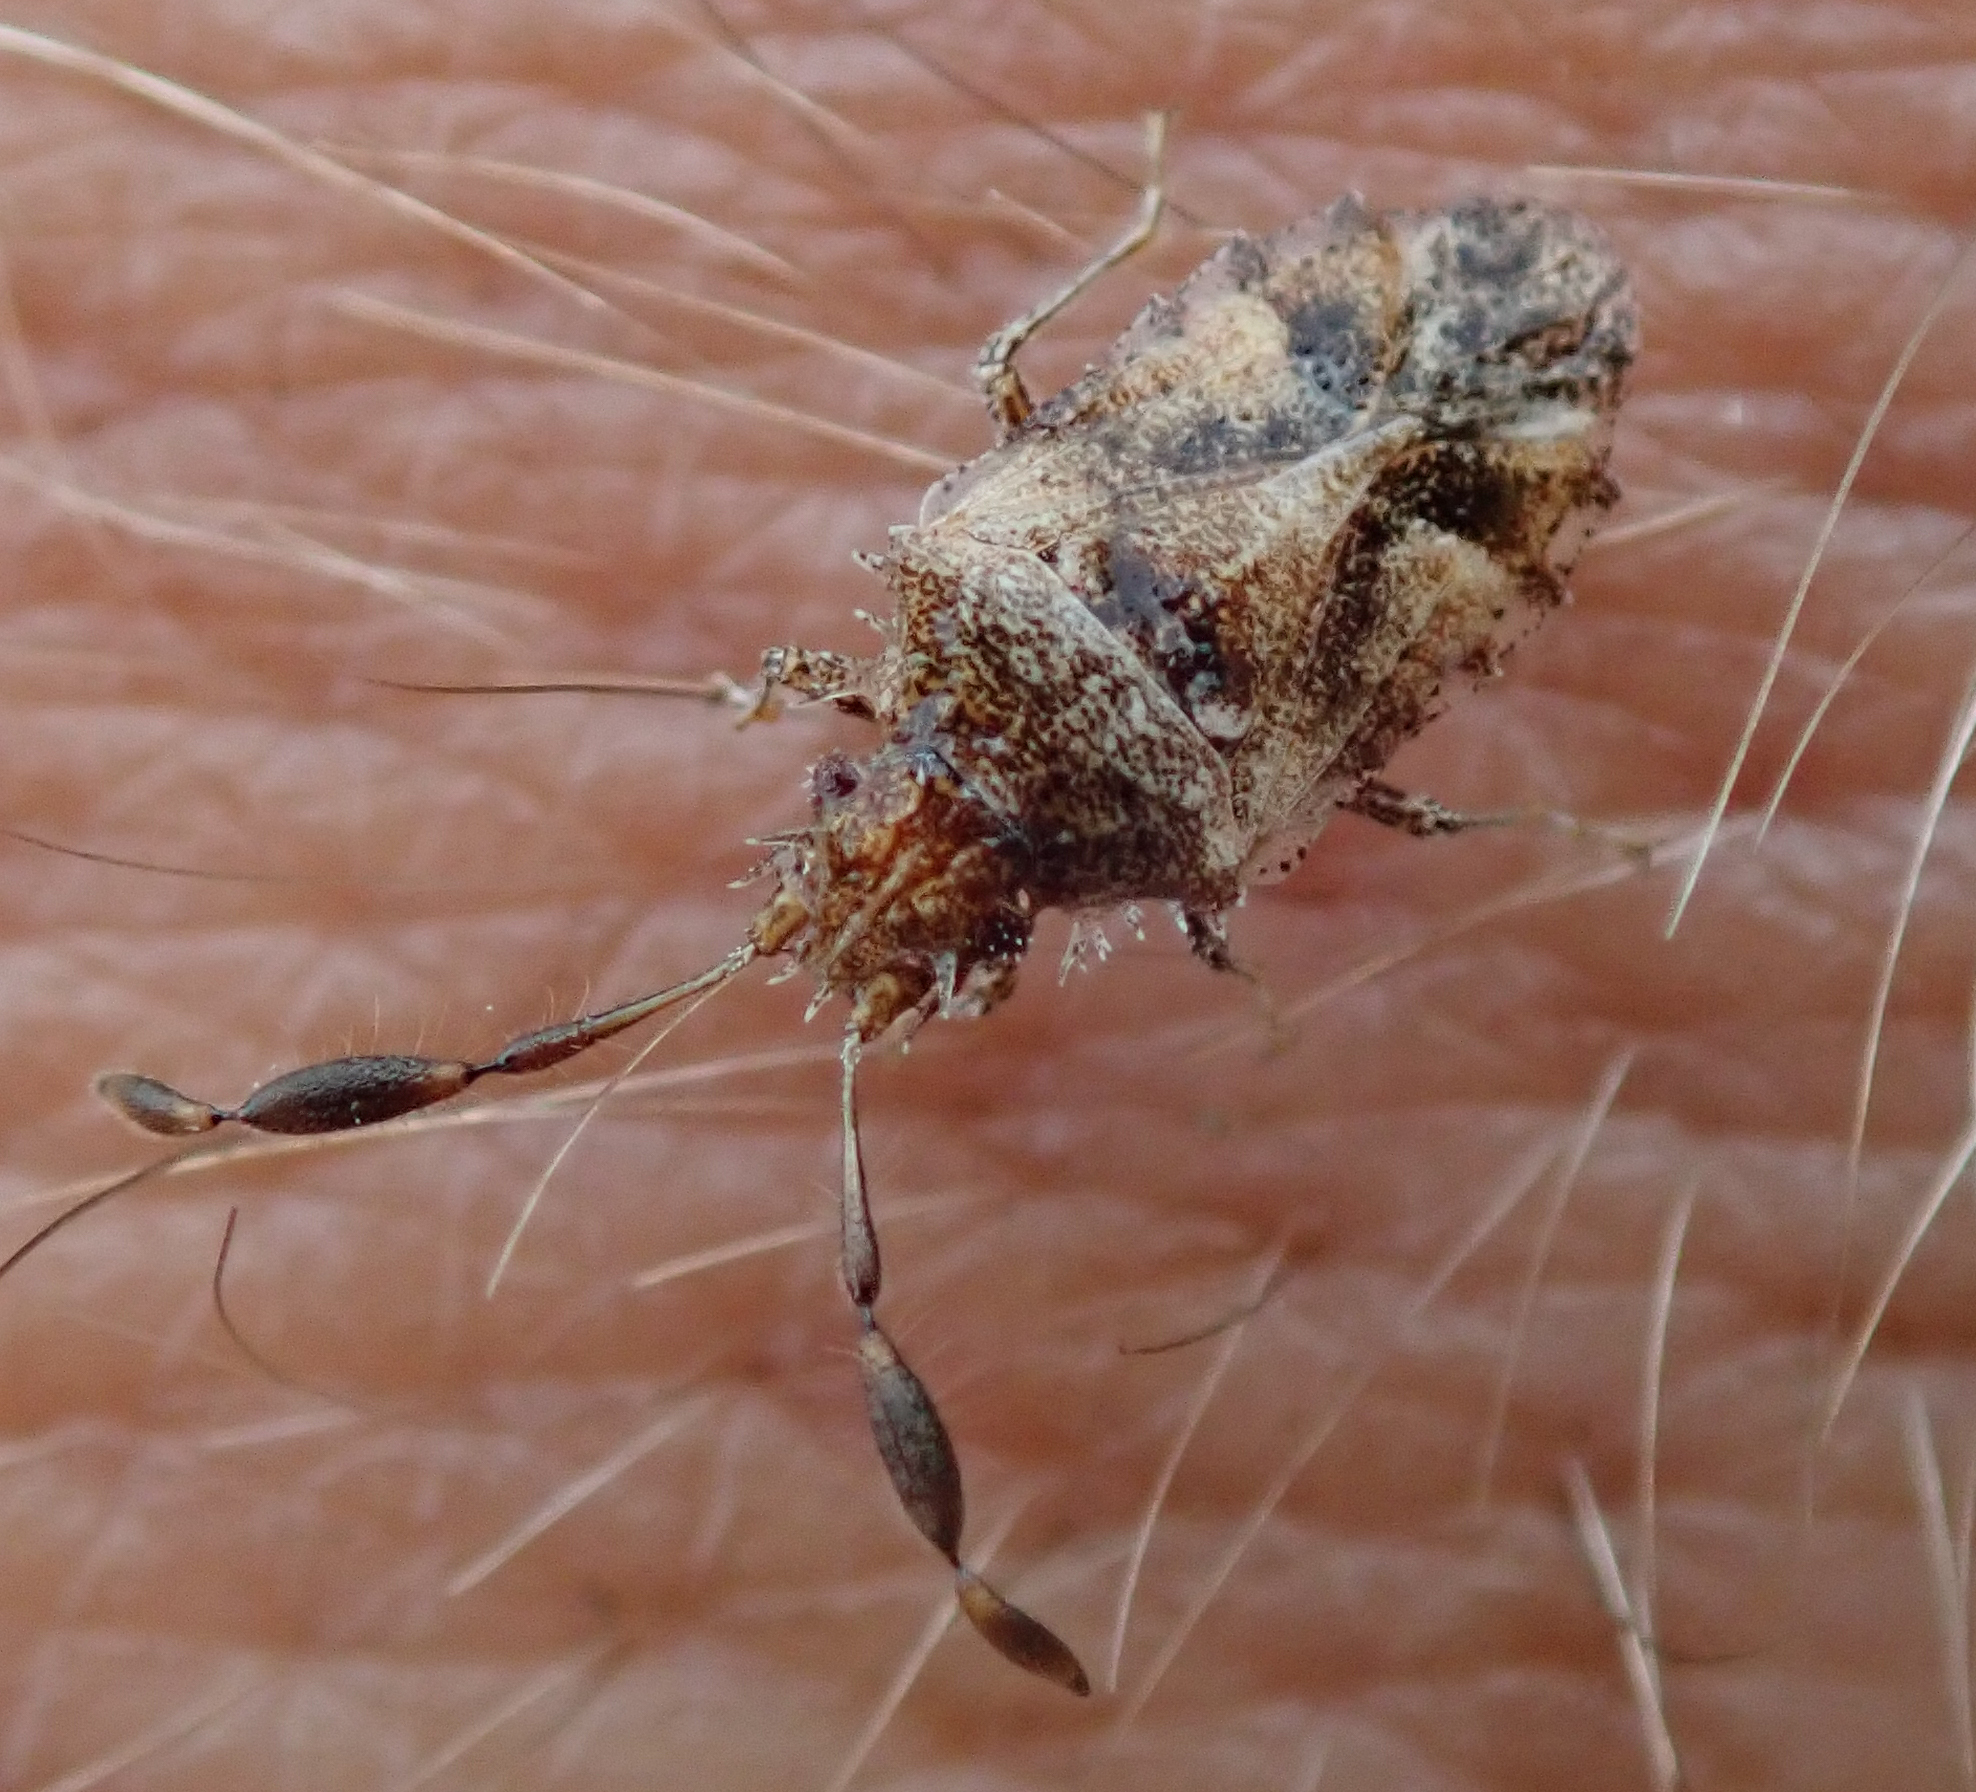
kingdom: Animalia
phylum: Arthropoda
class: Insecta
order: Hemiptera
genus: Phricodus
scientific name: Phricodus
